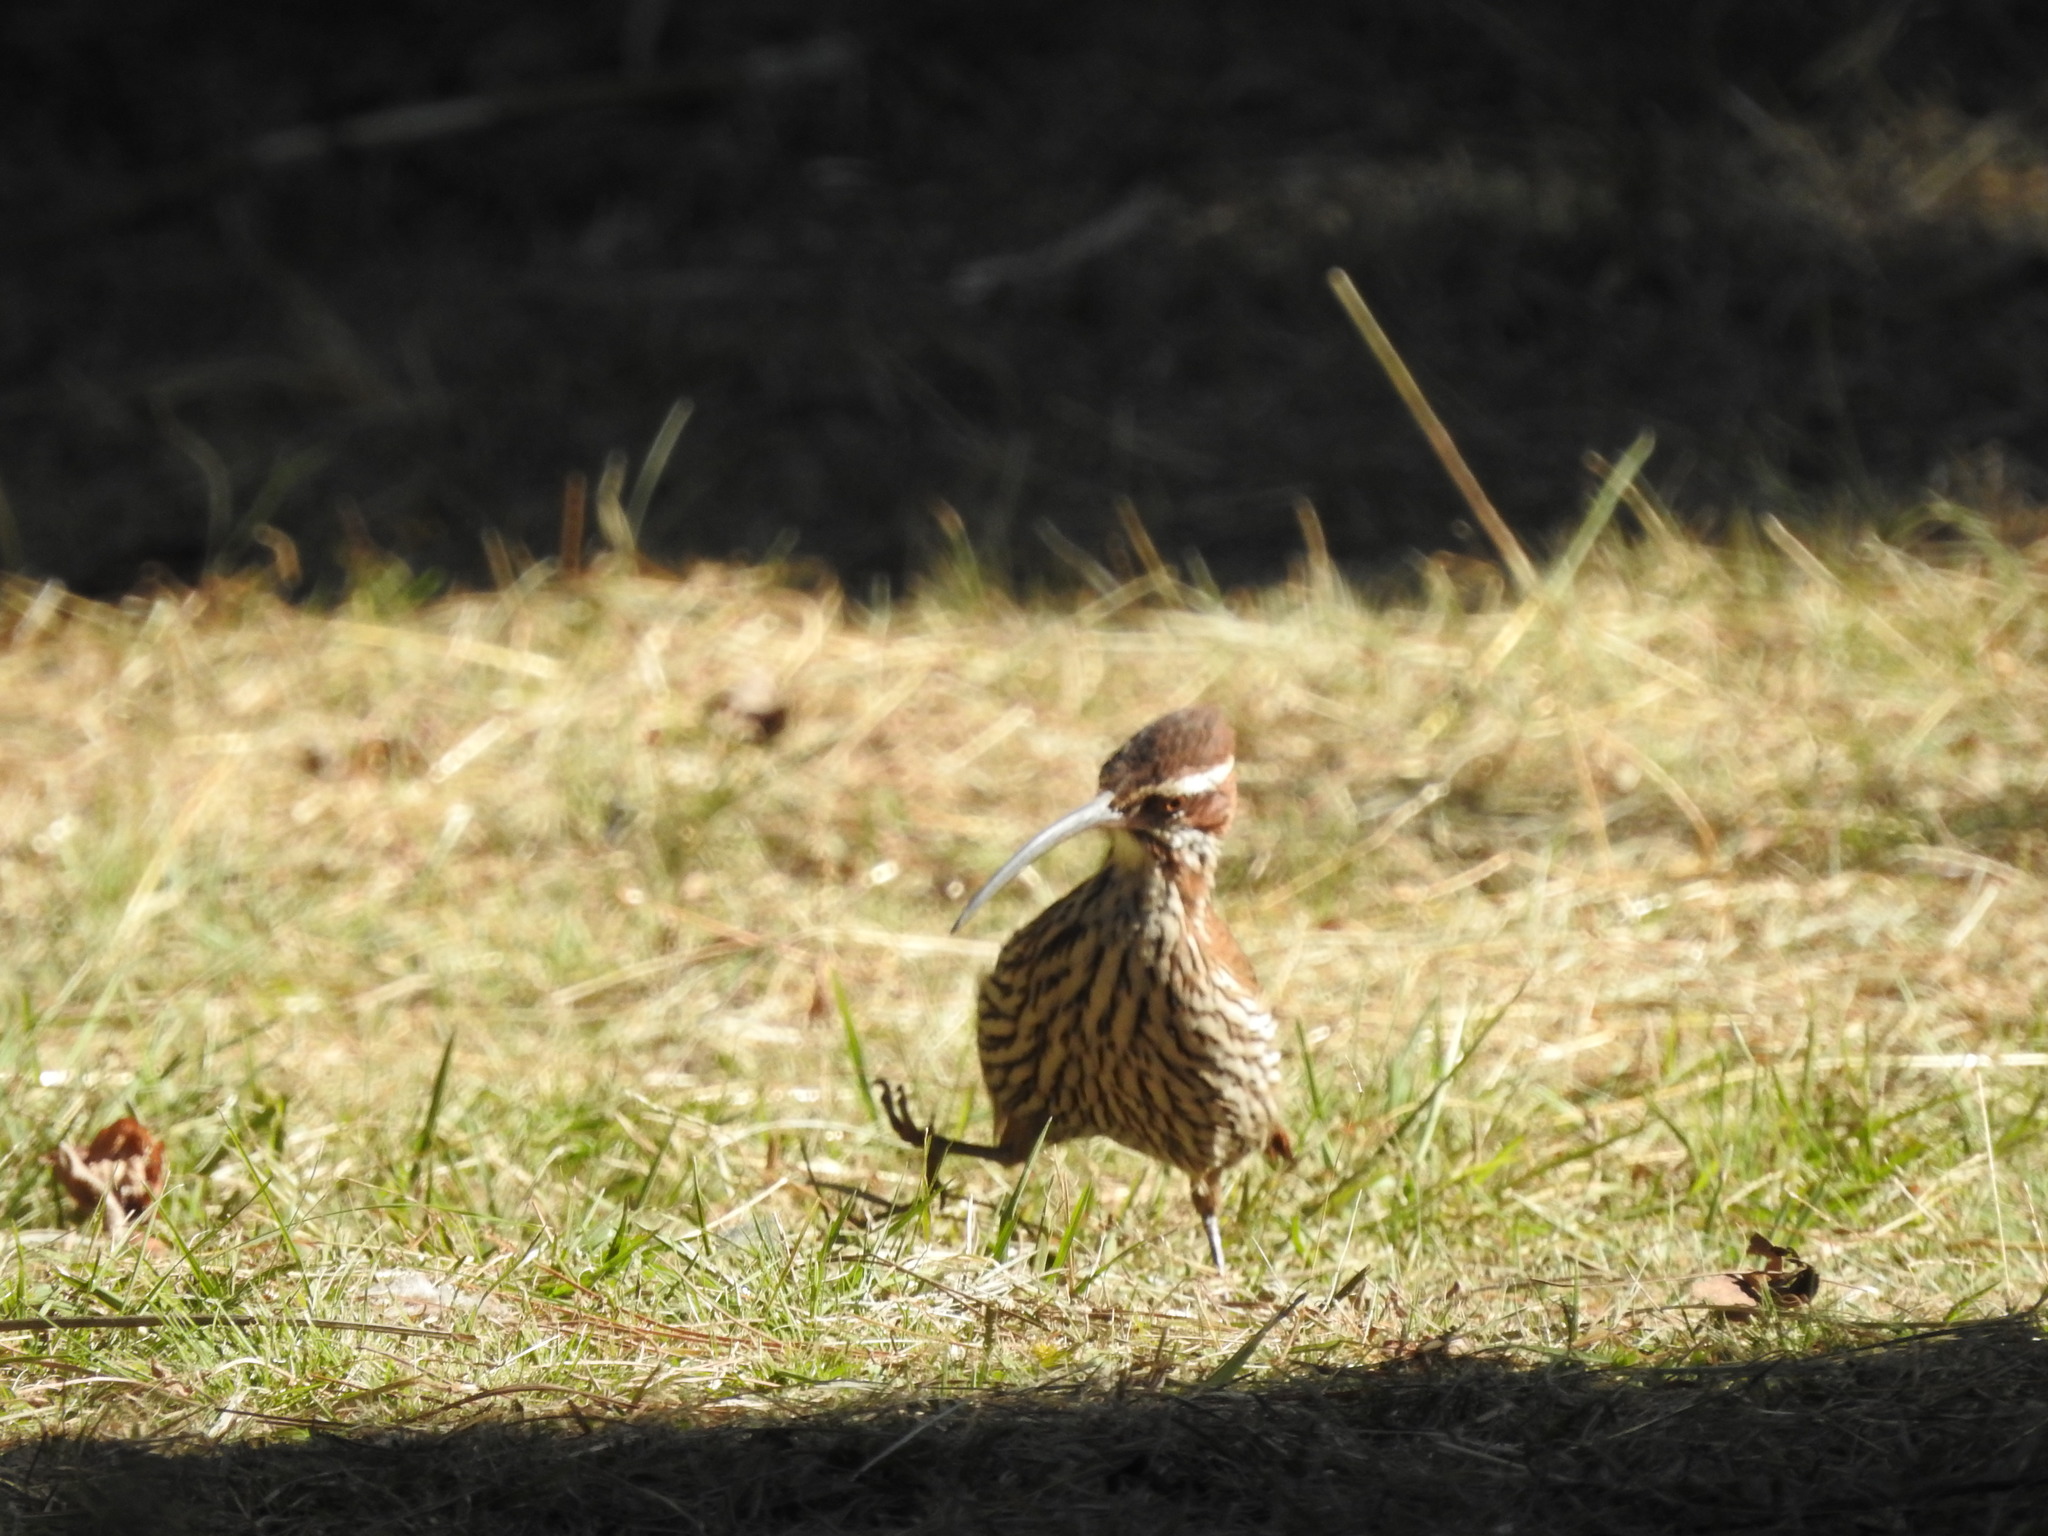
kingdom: Animalia
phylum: Chordata
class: Aves
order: Passeriformes
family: Furnariidae
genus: Drymornis
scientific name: Drymornis bridgesii
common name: Scimitar-billed woodcreeper
